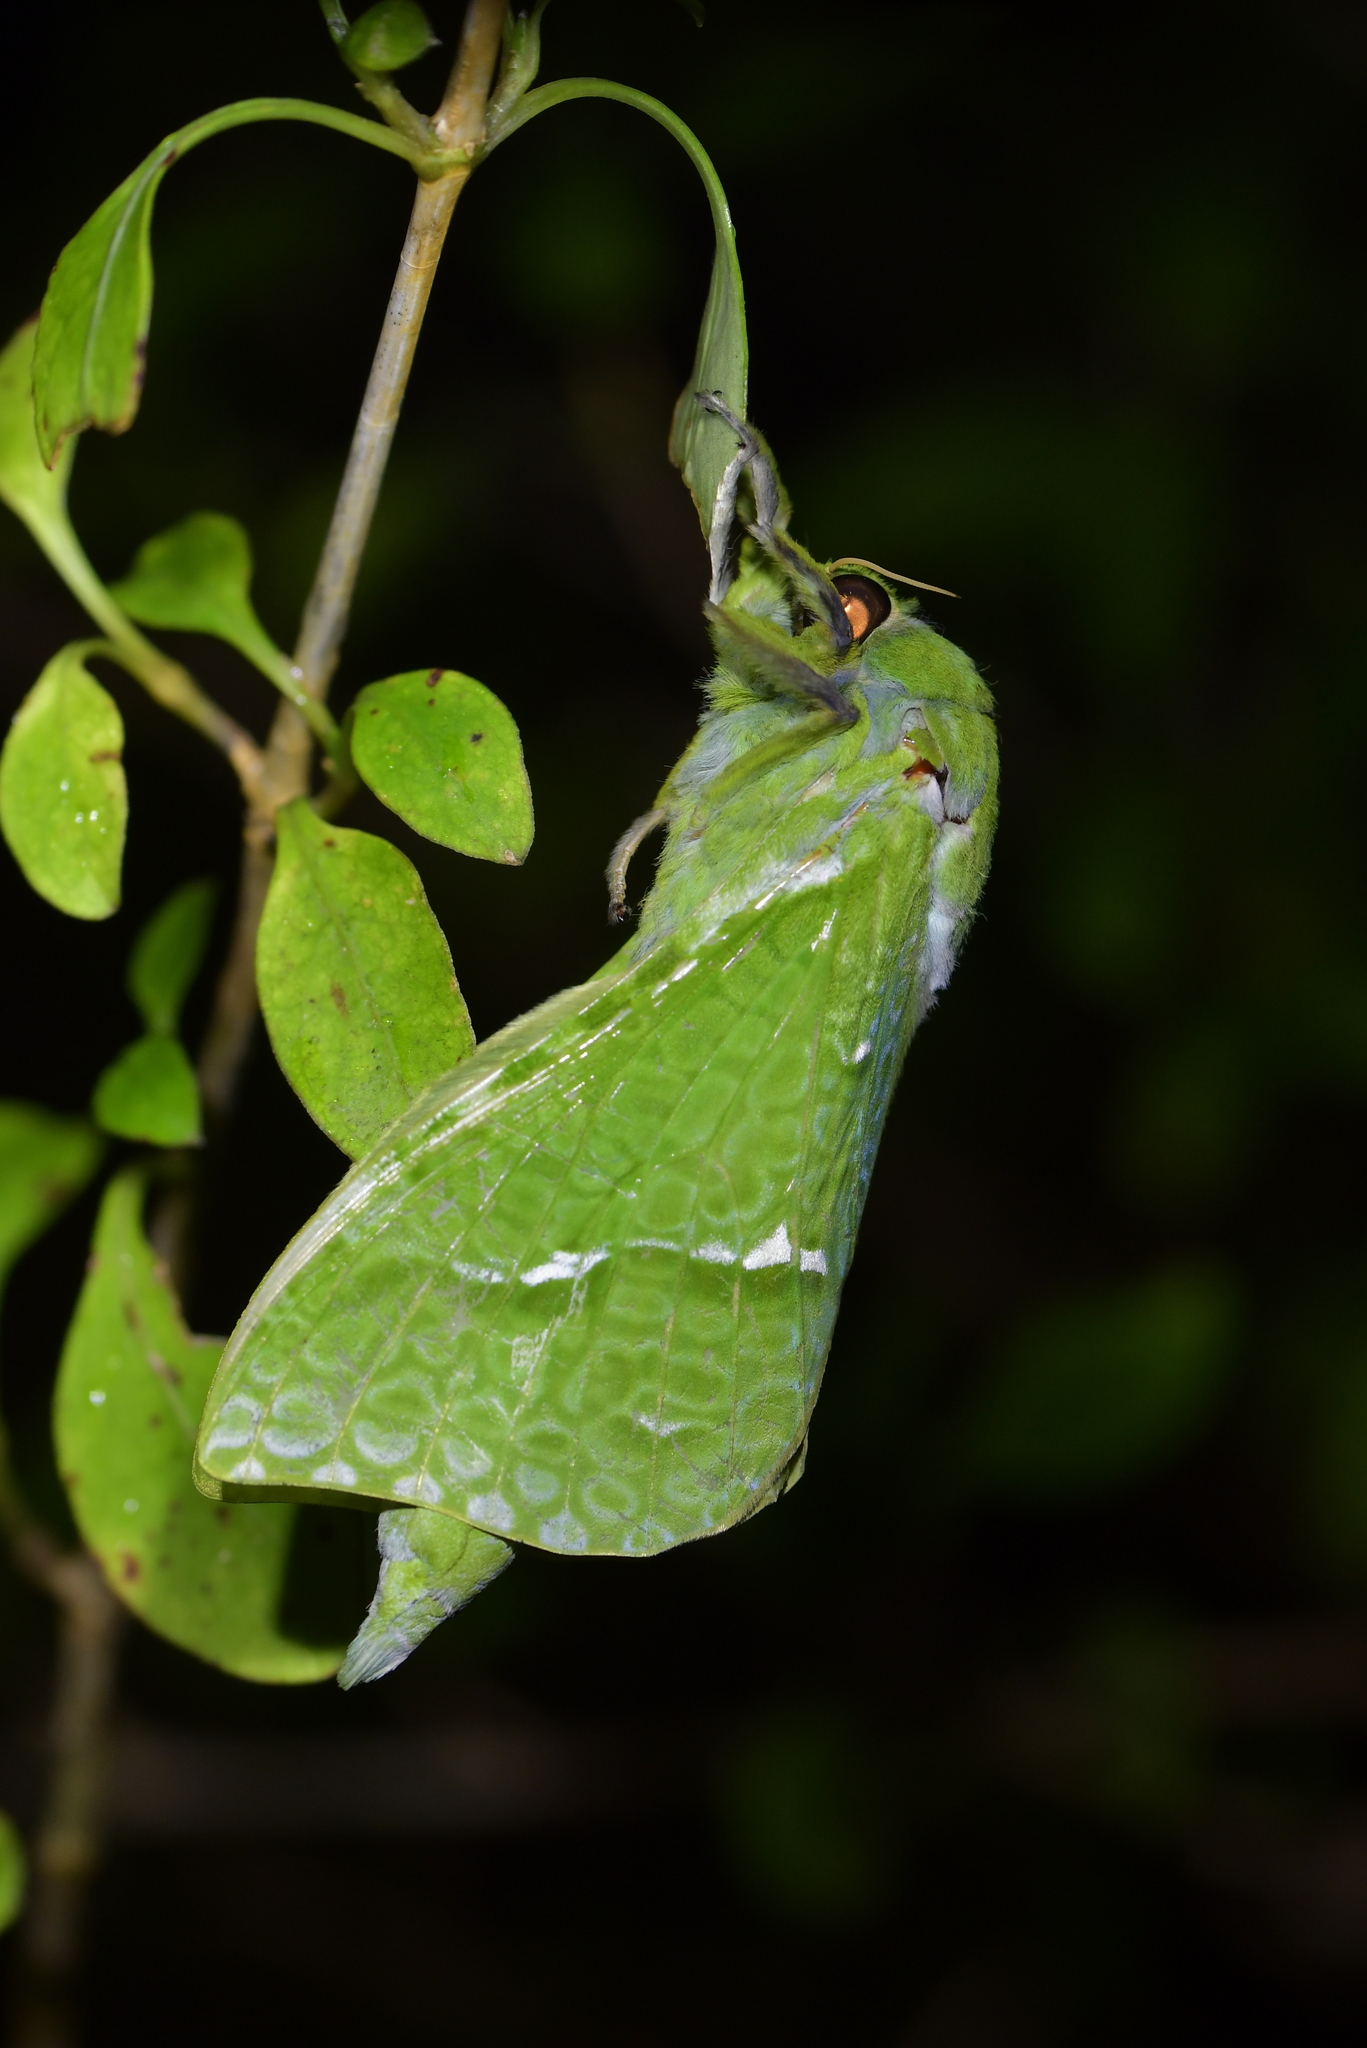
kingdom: Animalia
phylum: Arthropoda
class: Insecta
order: Lepidoptera
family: Hepialidae
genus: Aenetus
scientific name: Aenetus virescens
